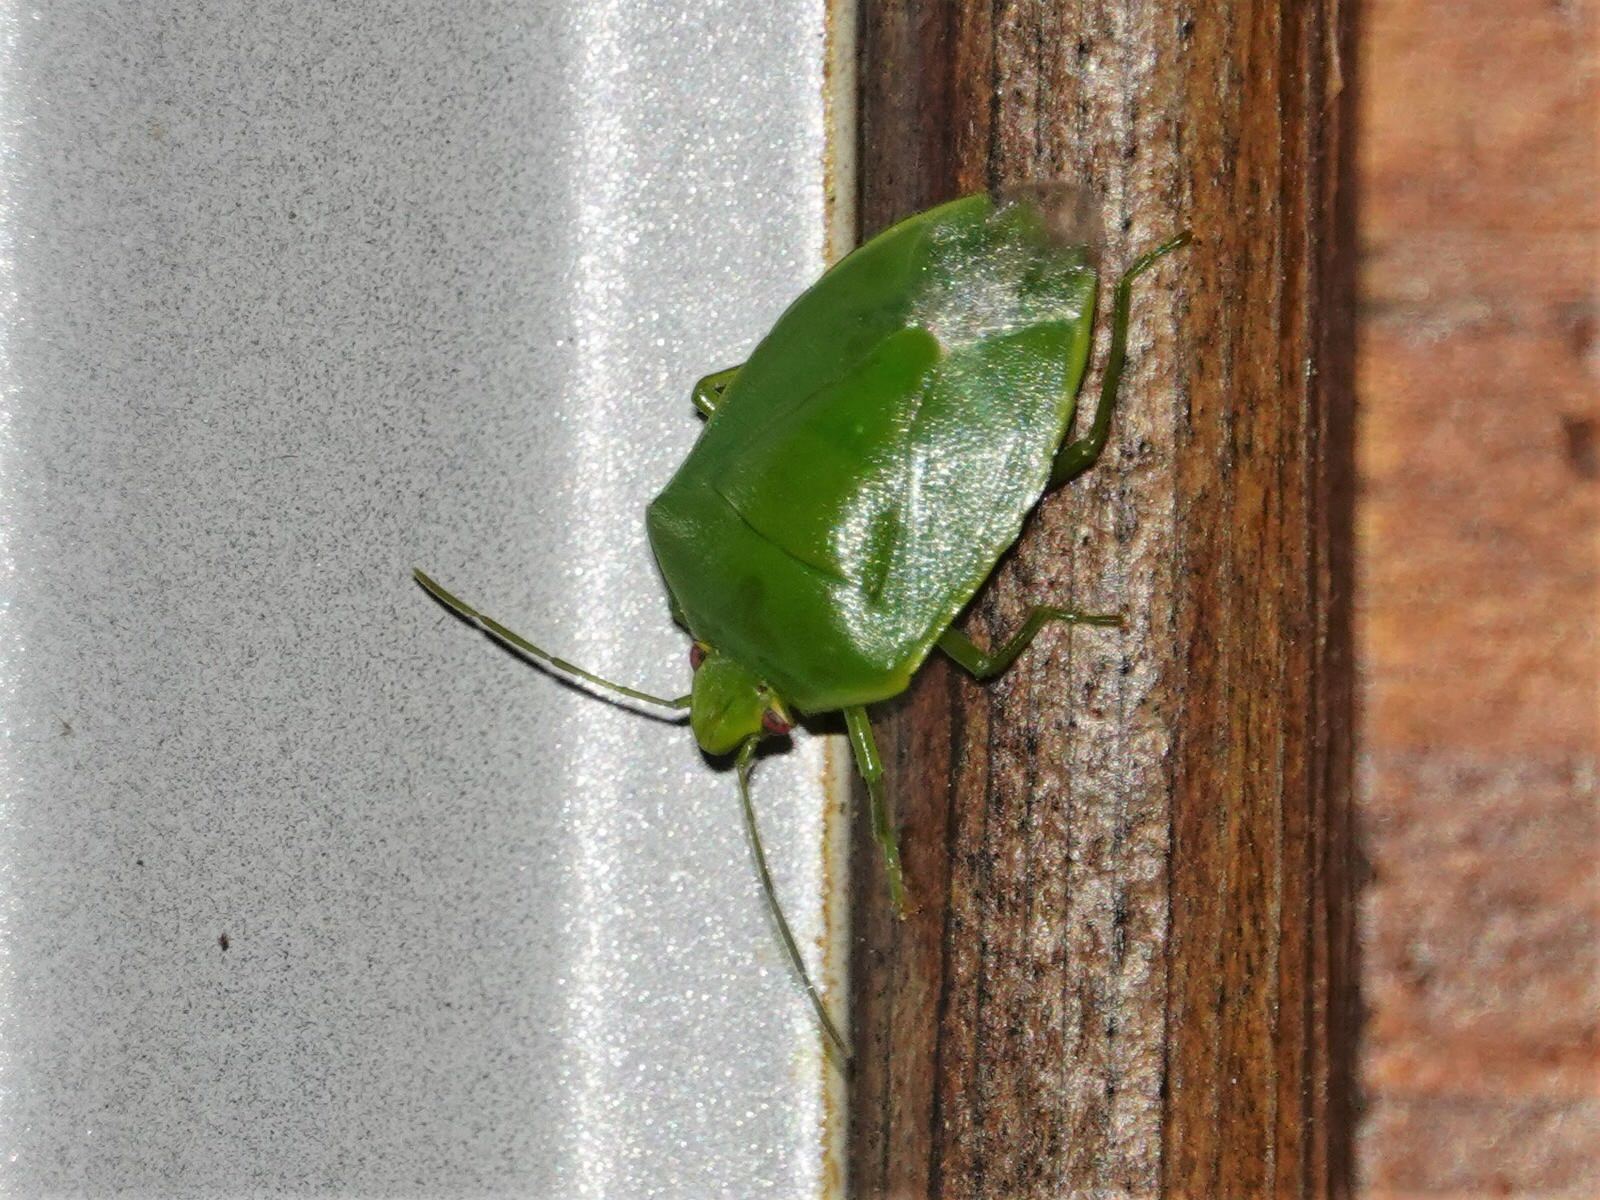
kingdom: Animalia
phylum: Arthropoda
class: Insecta
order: Hemiptera
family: Pentatomidae
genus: Glaucias
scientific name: Glaucias amyota
